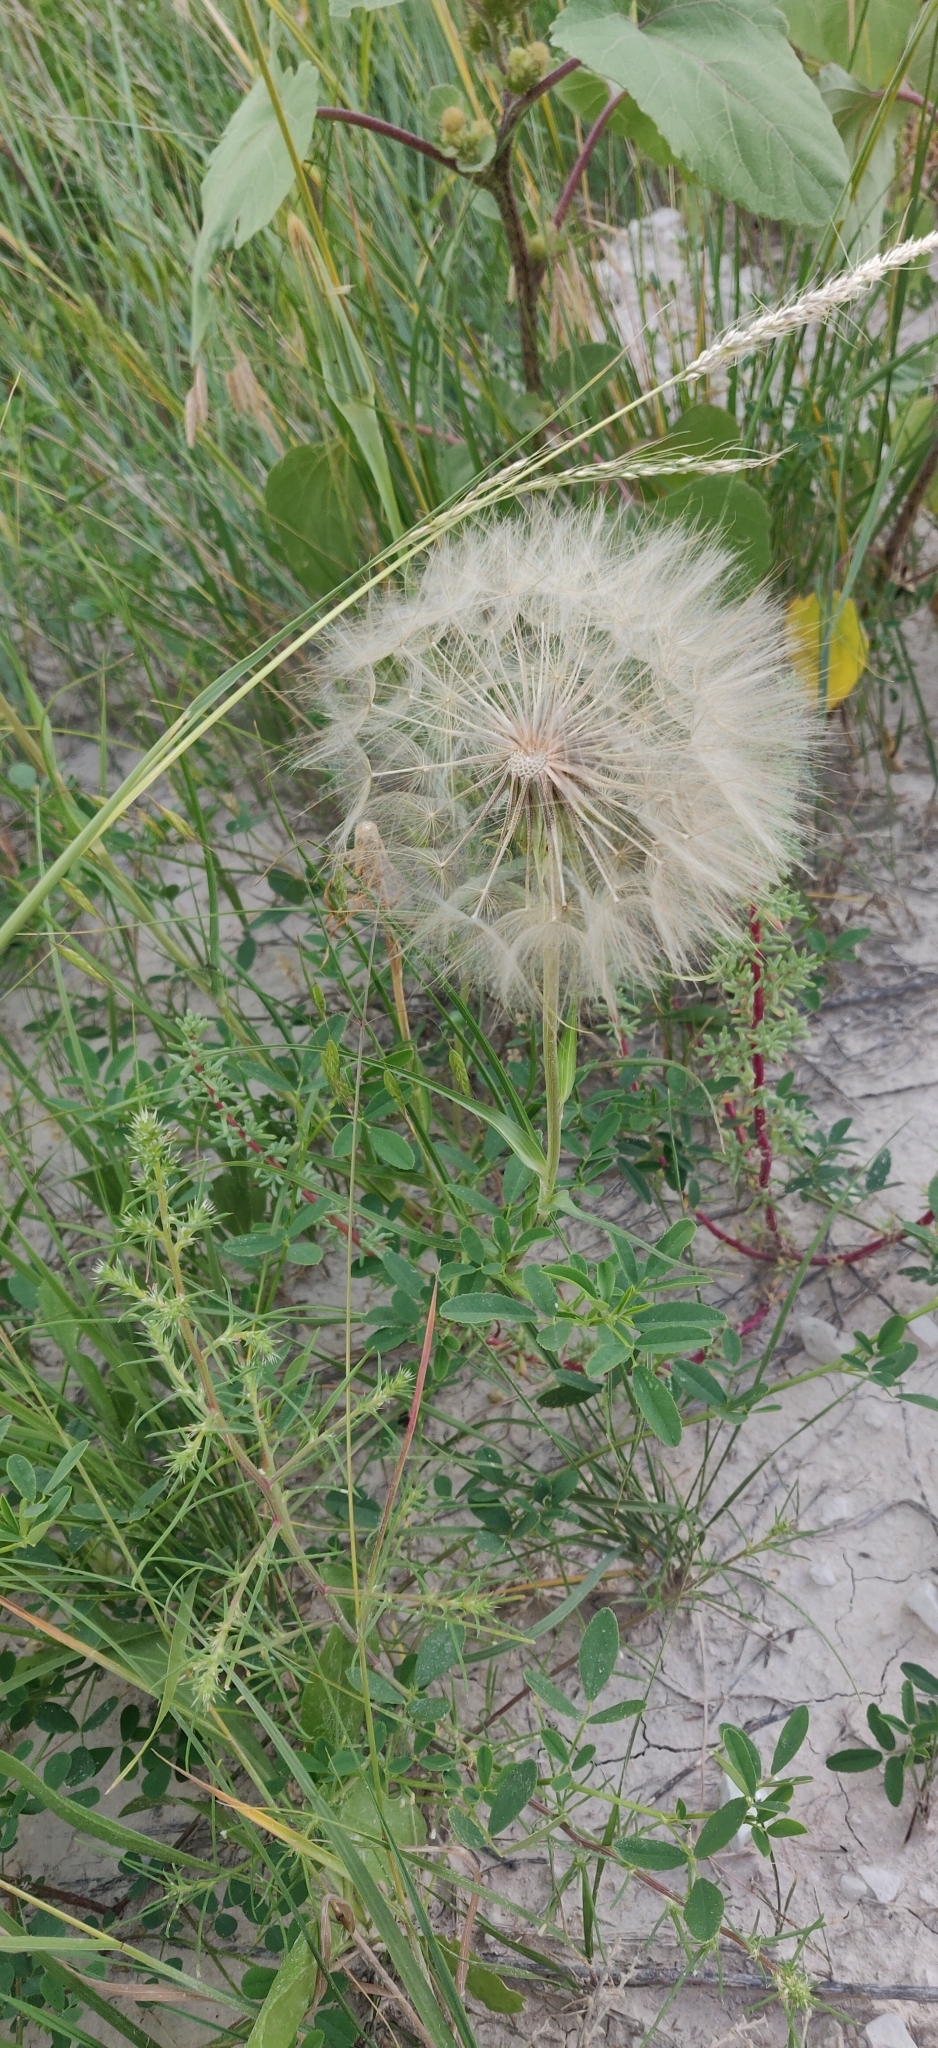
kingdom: Plantae
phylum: Tracheophyta
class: Magnoliopsida
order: Asterales
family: Asteraceae
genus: Tragopogon
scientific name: Tragopogon dubius
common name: Yellow salsify
